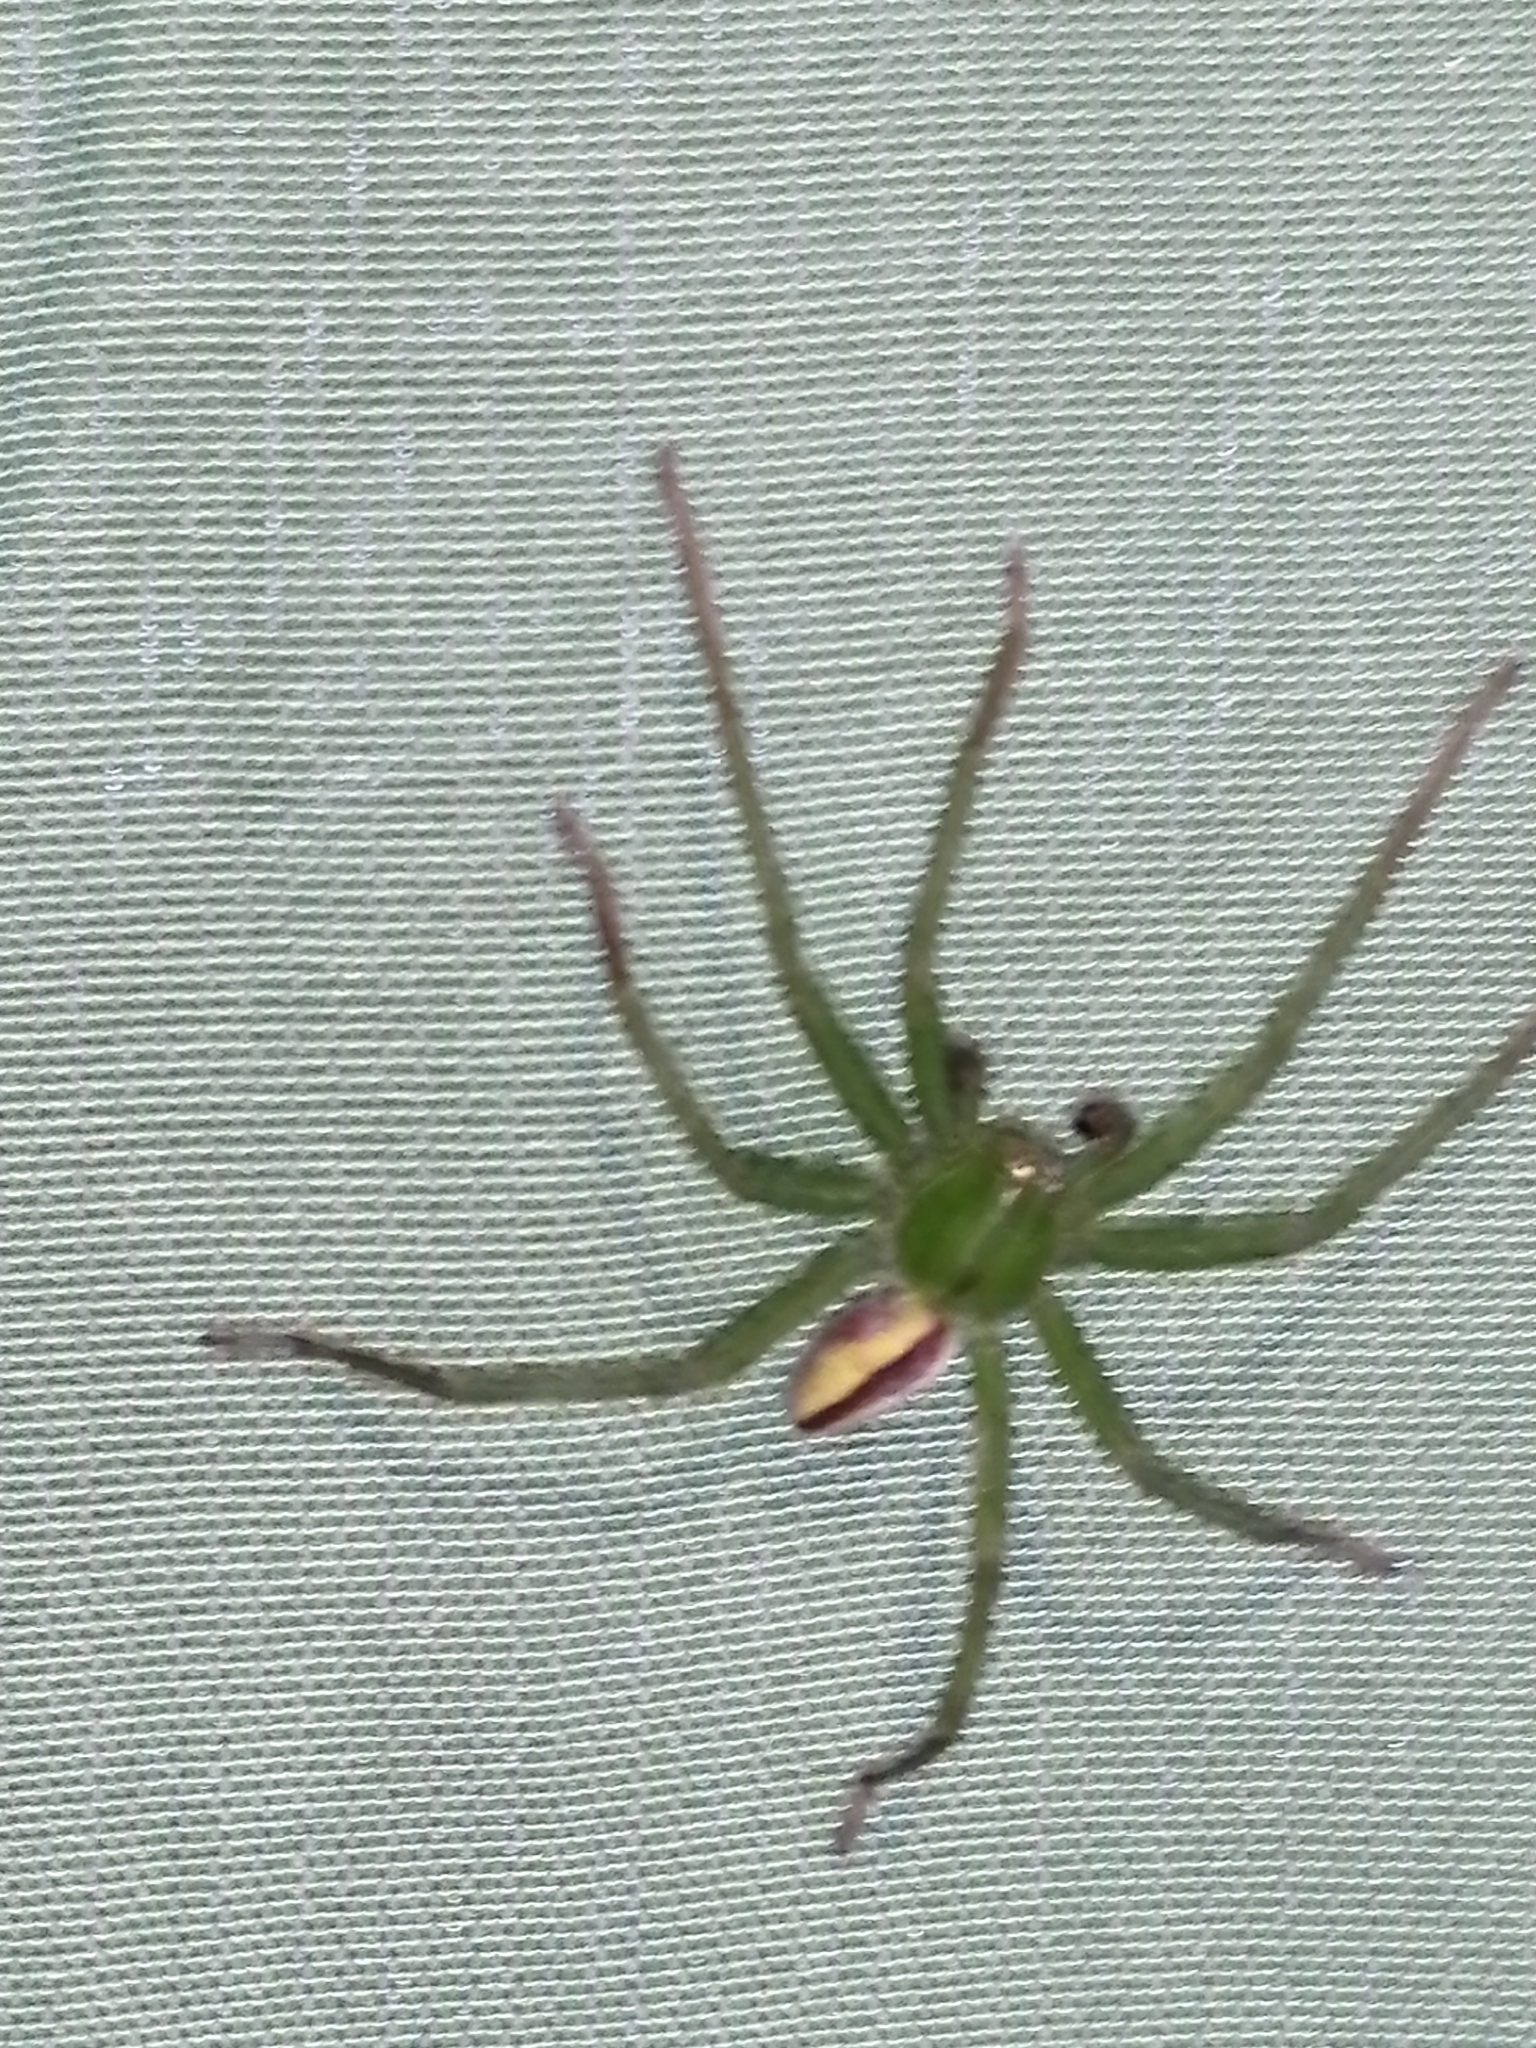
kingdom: Animalia
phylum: Arthropoda
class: Arachnida
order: Araneae
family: Sparassidae
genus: Micrommata
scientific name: Micrommata virescens
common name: Green spider
